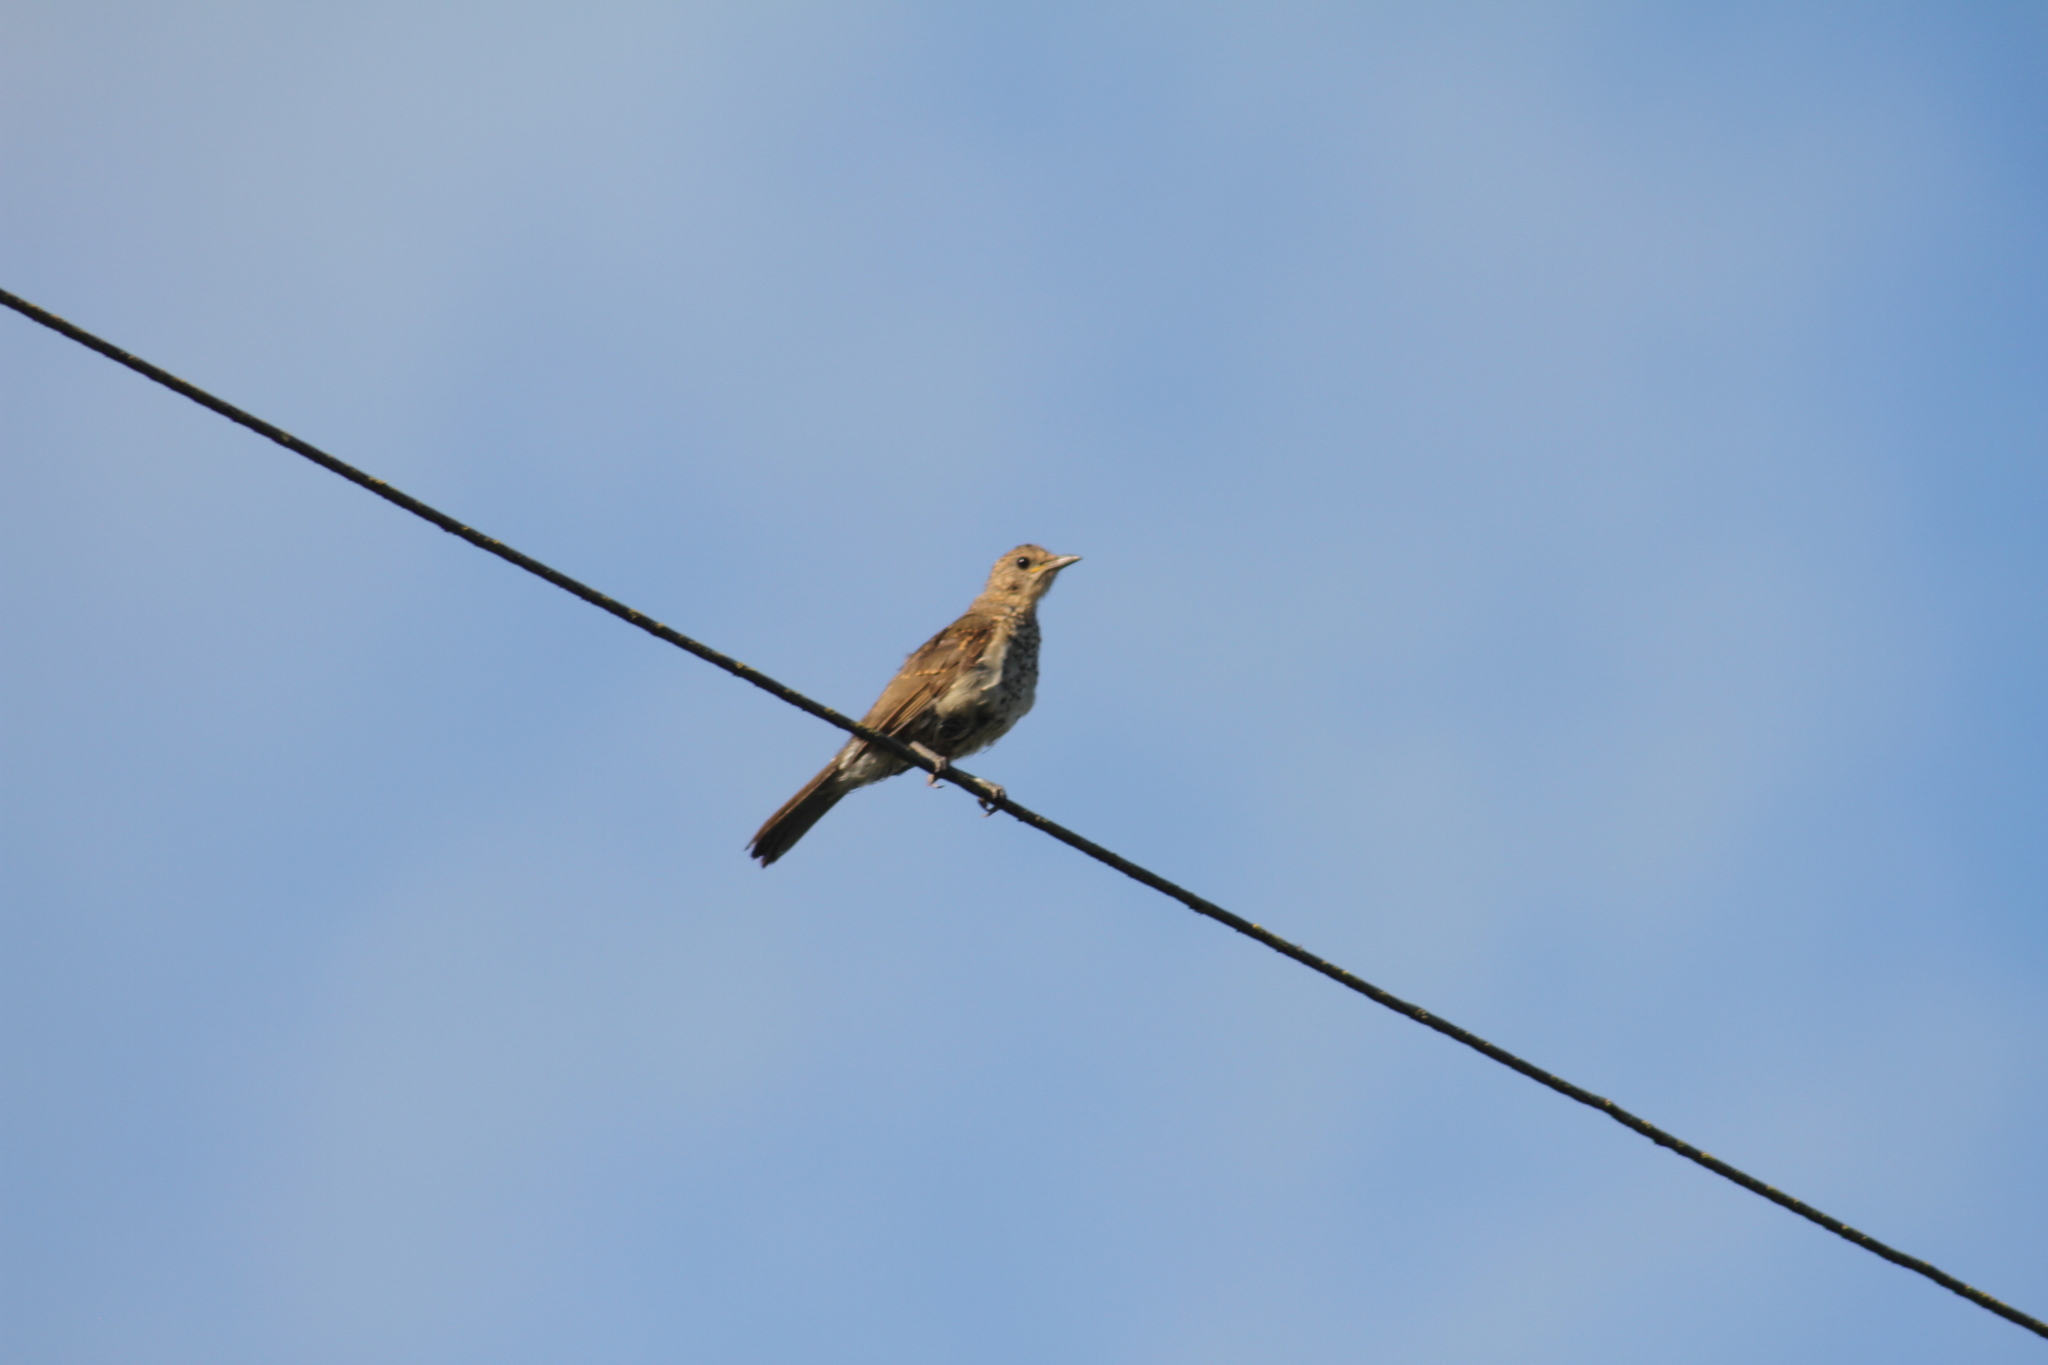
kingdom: Animalia
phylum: Chordata
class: Aves
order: Passeriformes
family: Turdidae
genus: Turdus
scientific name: Turdus amaurochalinus
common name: Creamy-bellied thrush
